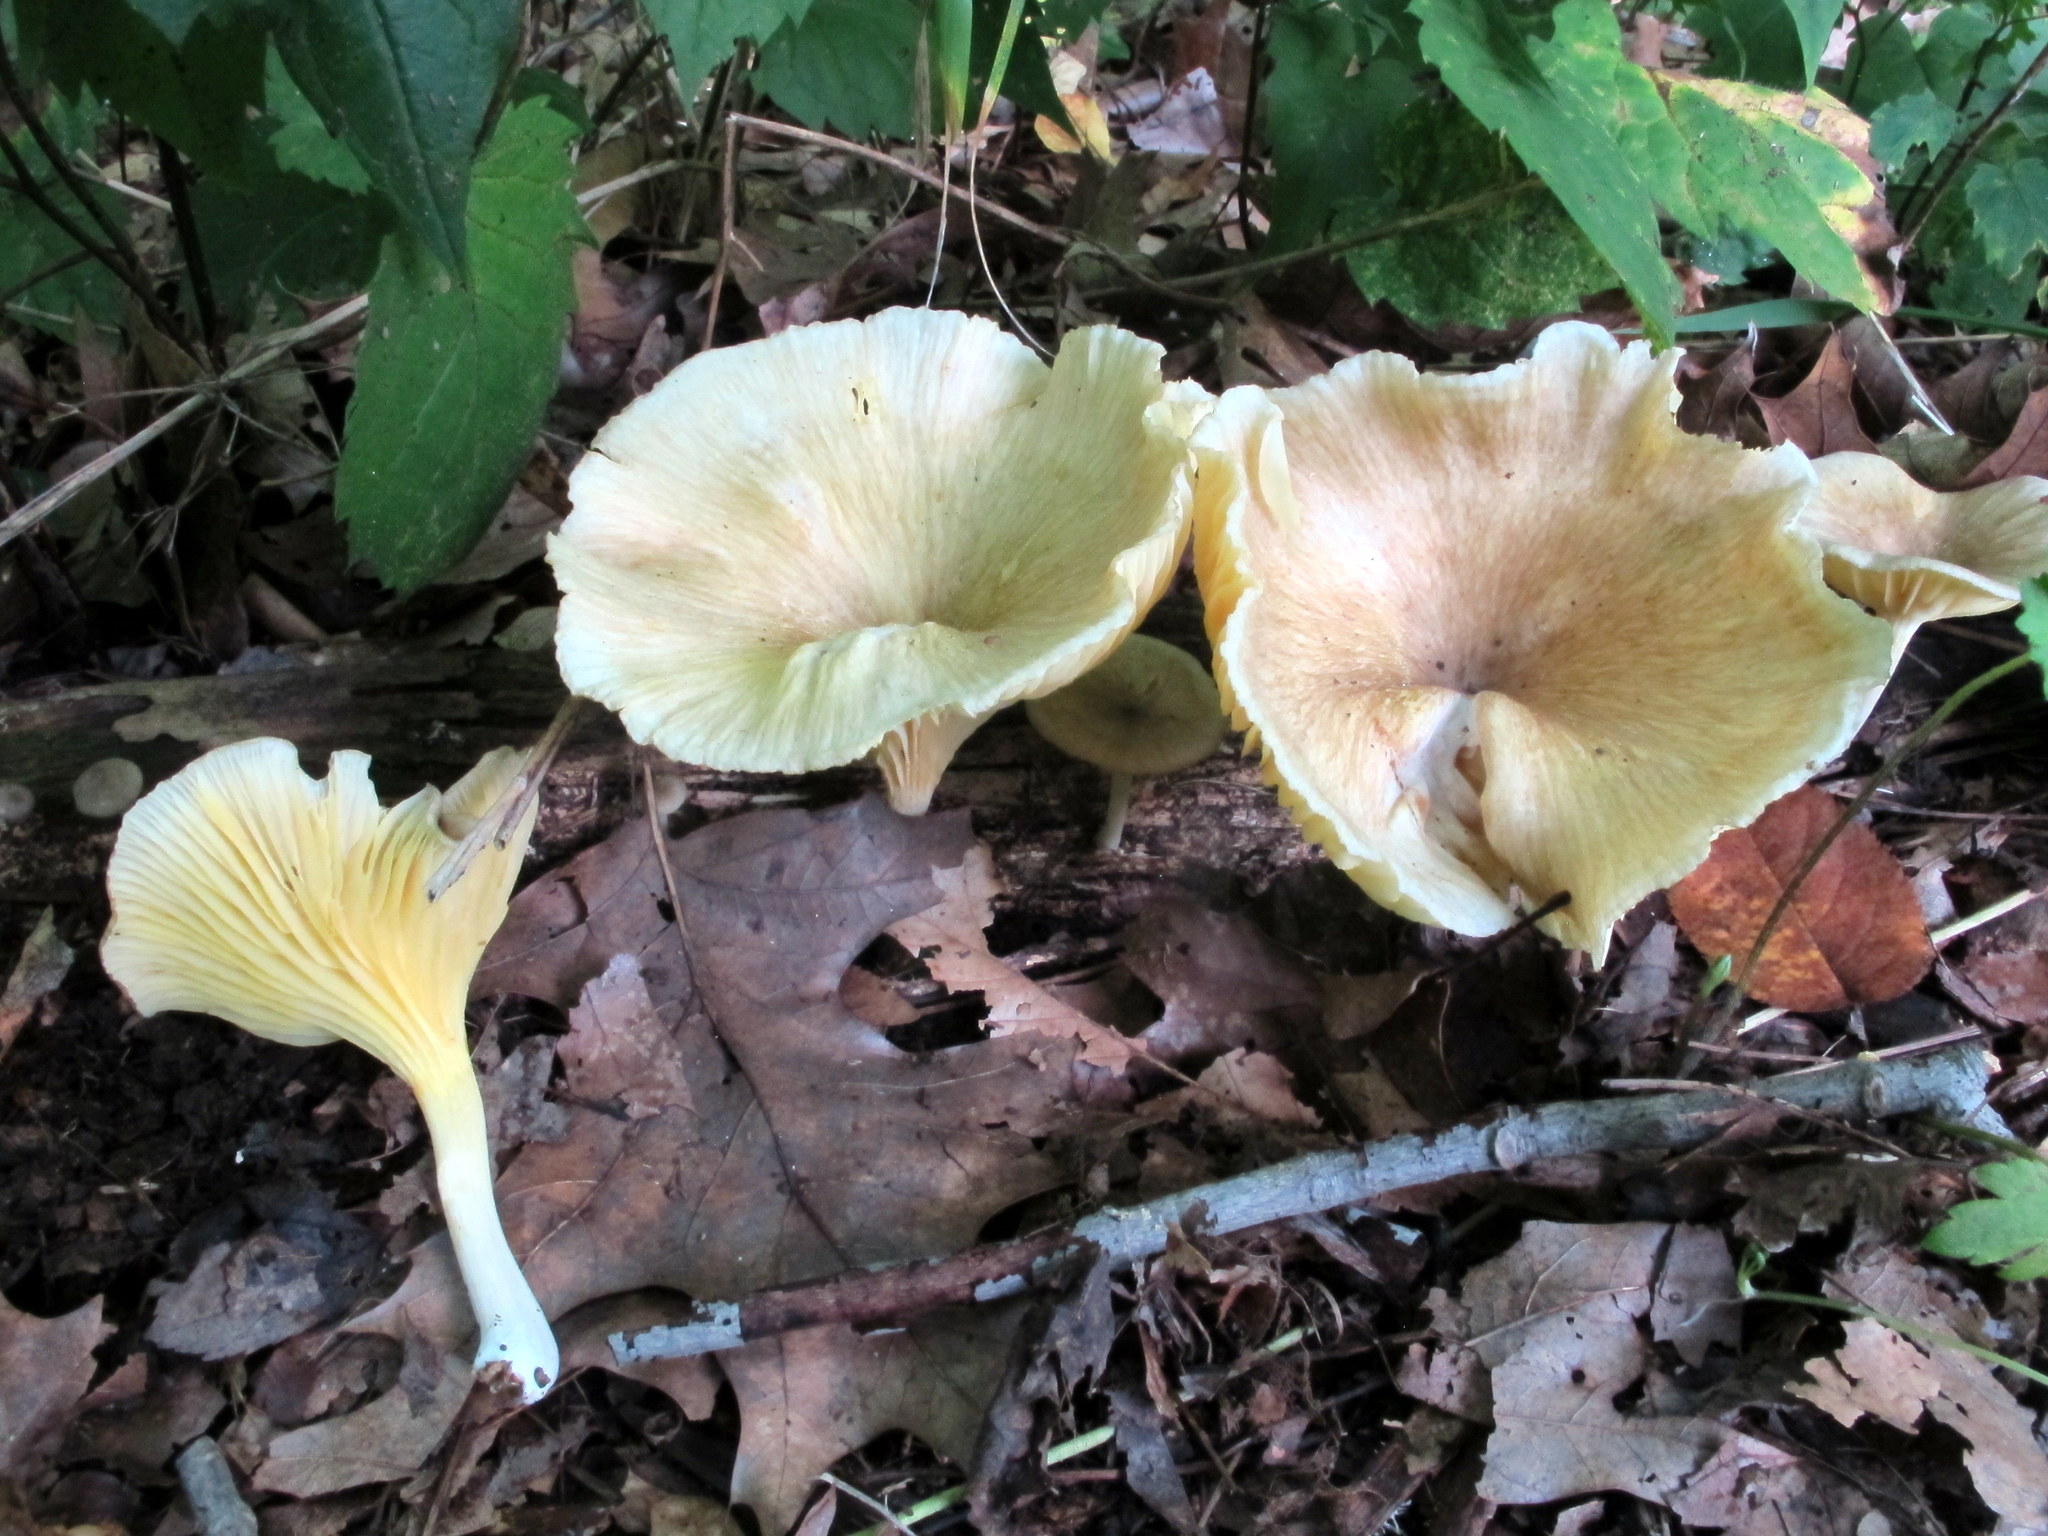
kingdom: Fungi
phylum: Basidiomycota
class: Agaricomycetes
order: Agaricales
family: Marasmiaceae
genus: Gerronema
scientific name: Gerronema strombodes
